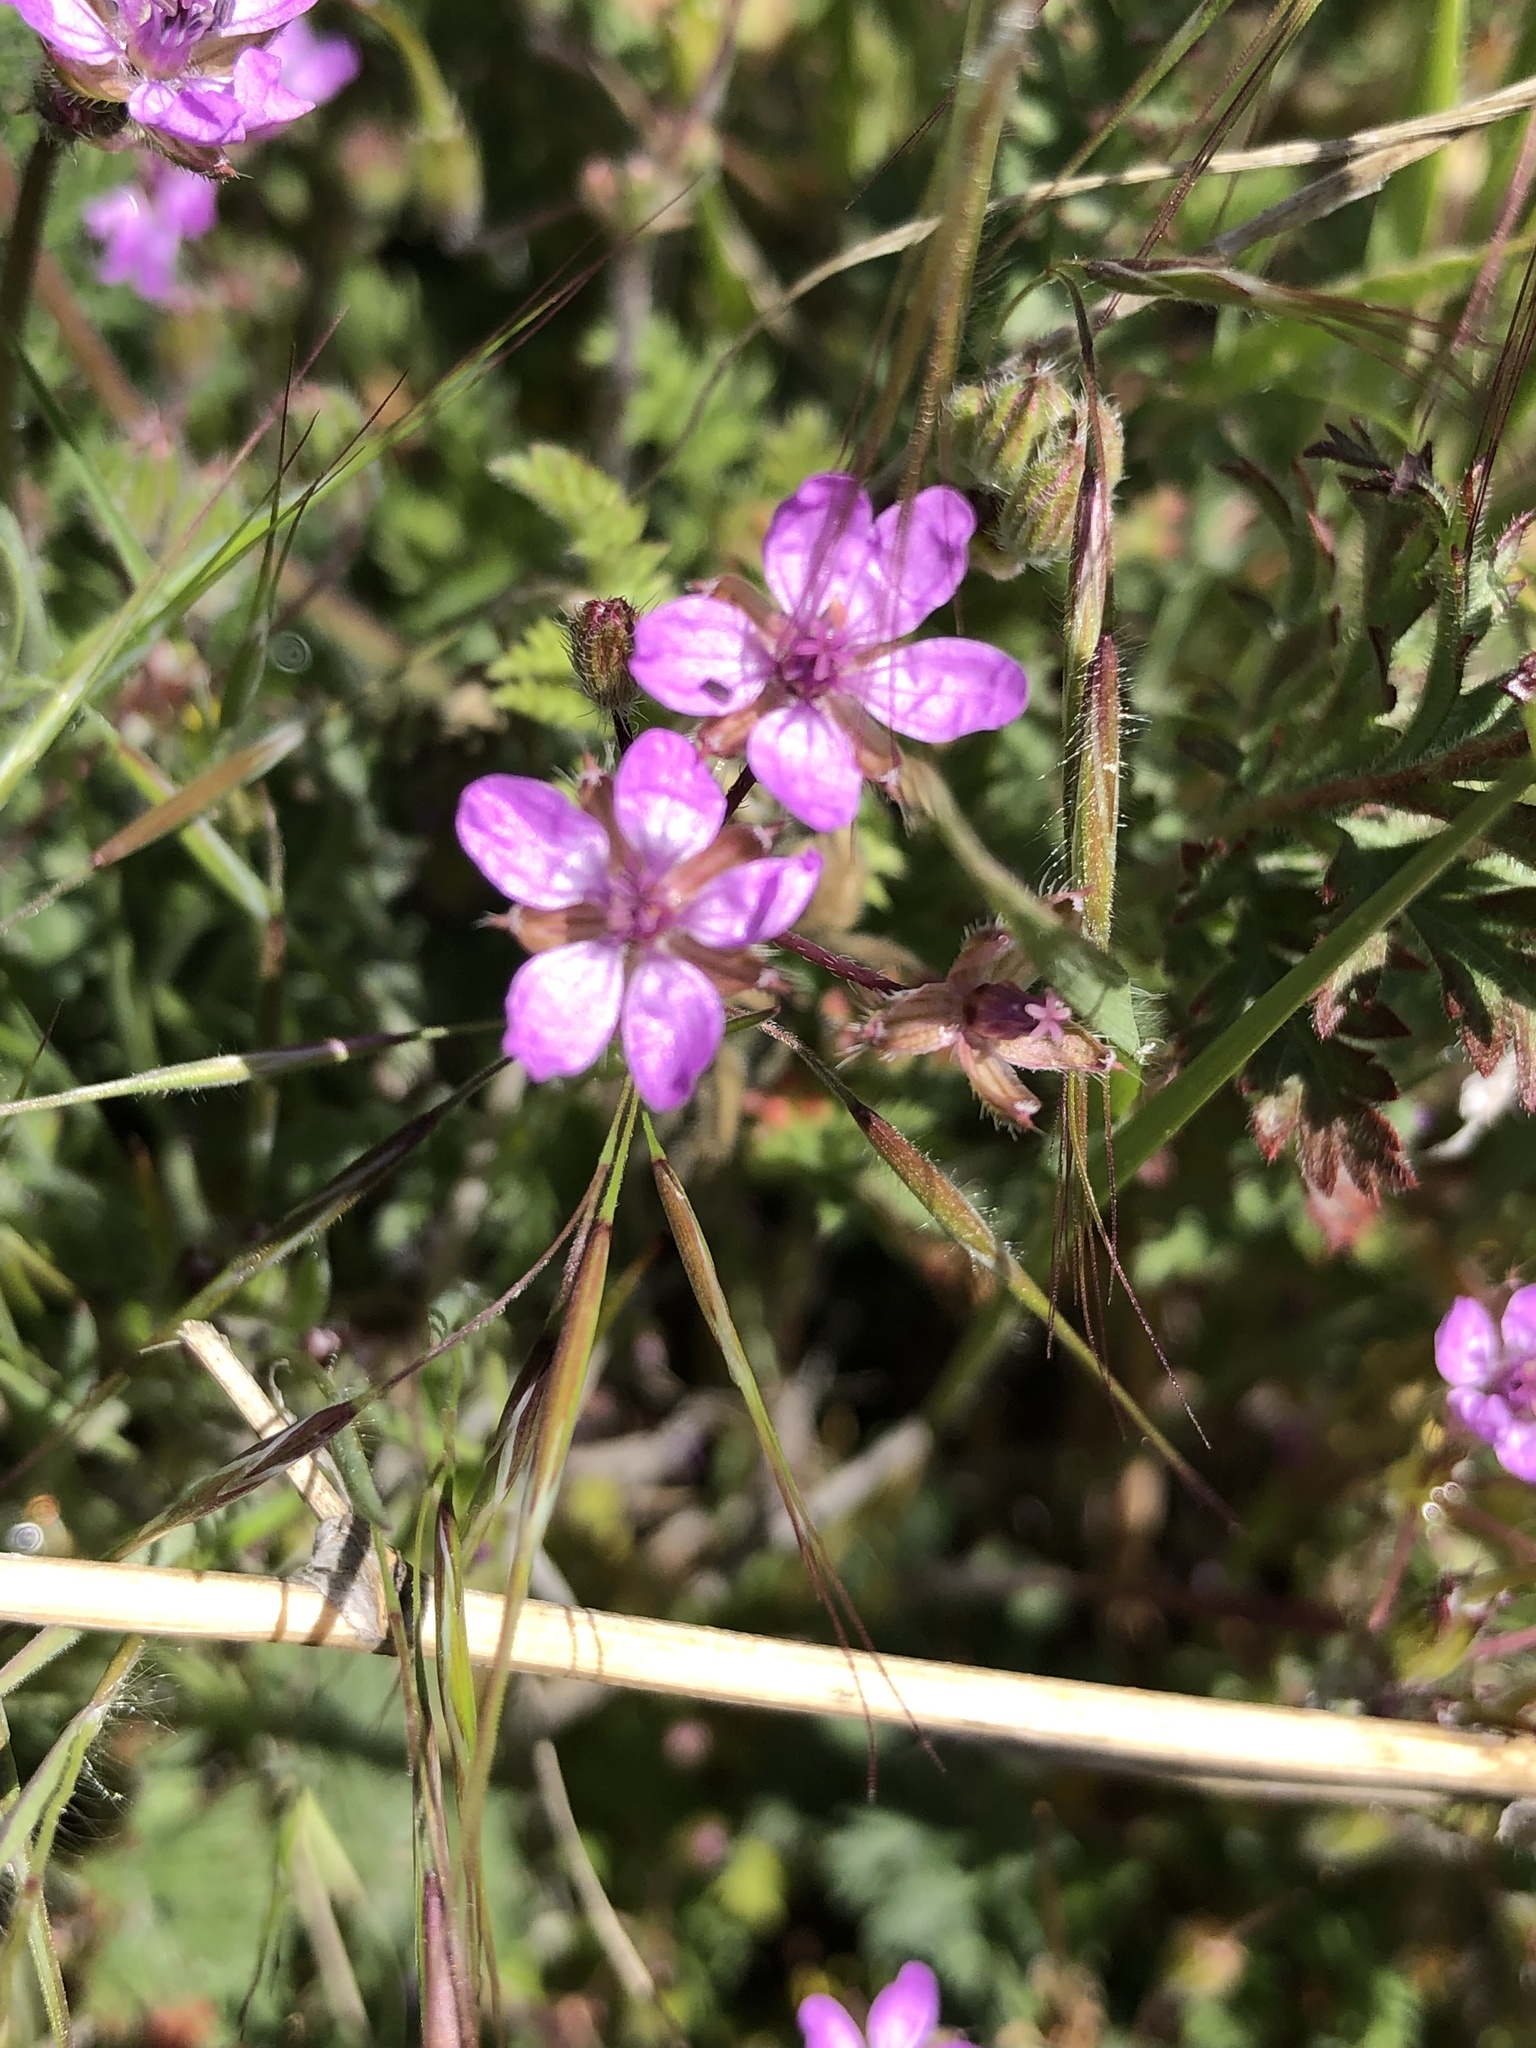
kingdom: Plantae
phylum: Tracheophyta
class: Magnoliopsida
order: Geraniales
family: Geraniaceae
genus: Erodium
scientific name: Erodium cicutarium
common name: Common stork's-bill
